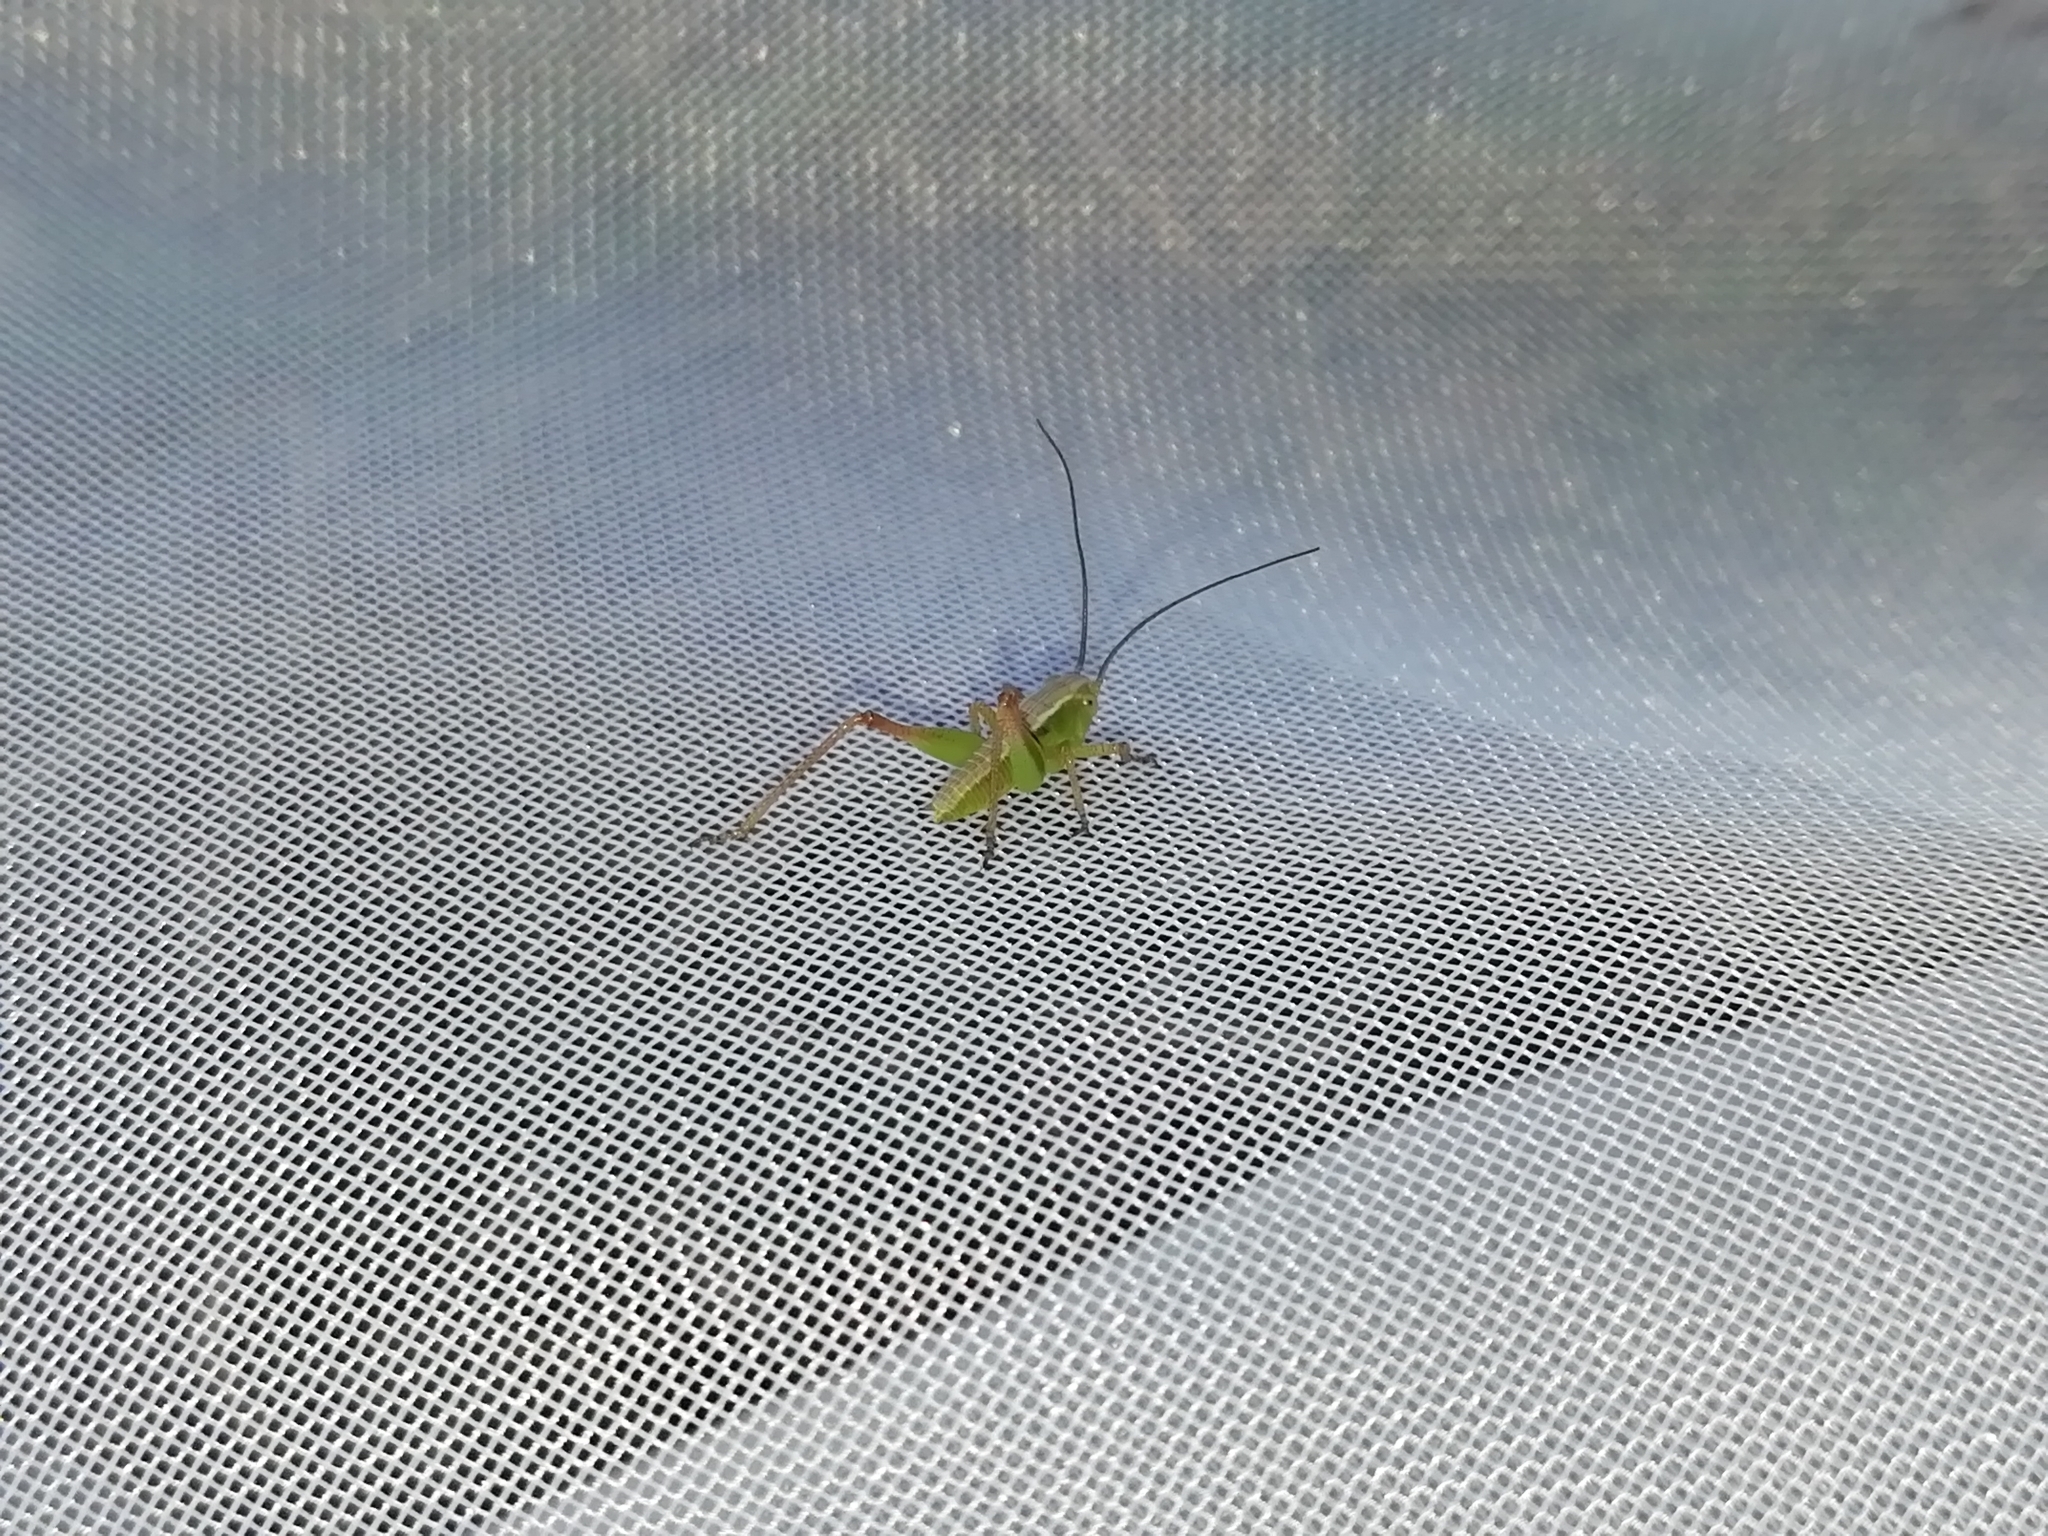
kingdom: Animalia
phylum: Arthropoda
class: Insecta
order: Orthoptera
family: Tettigoniidae
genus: Bicolorana
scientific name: Bicolorana bicolor
